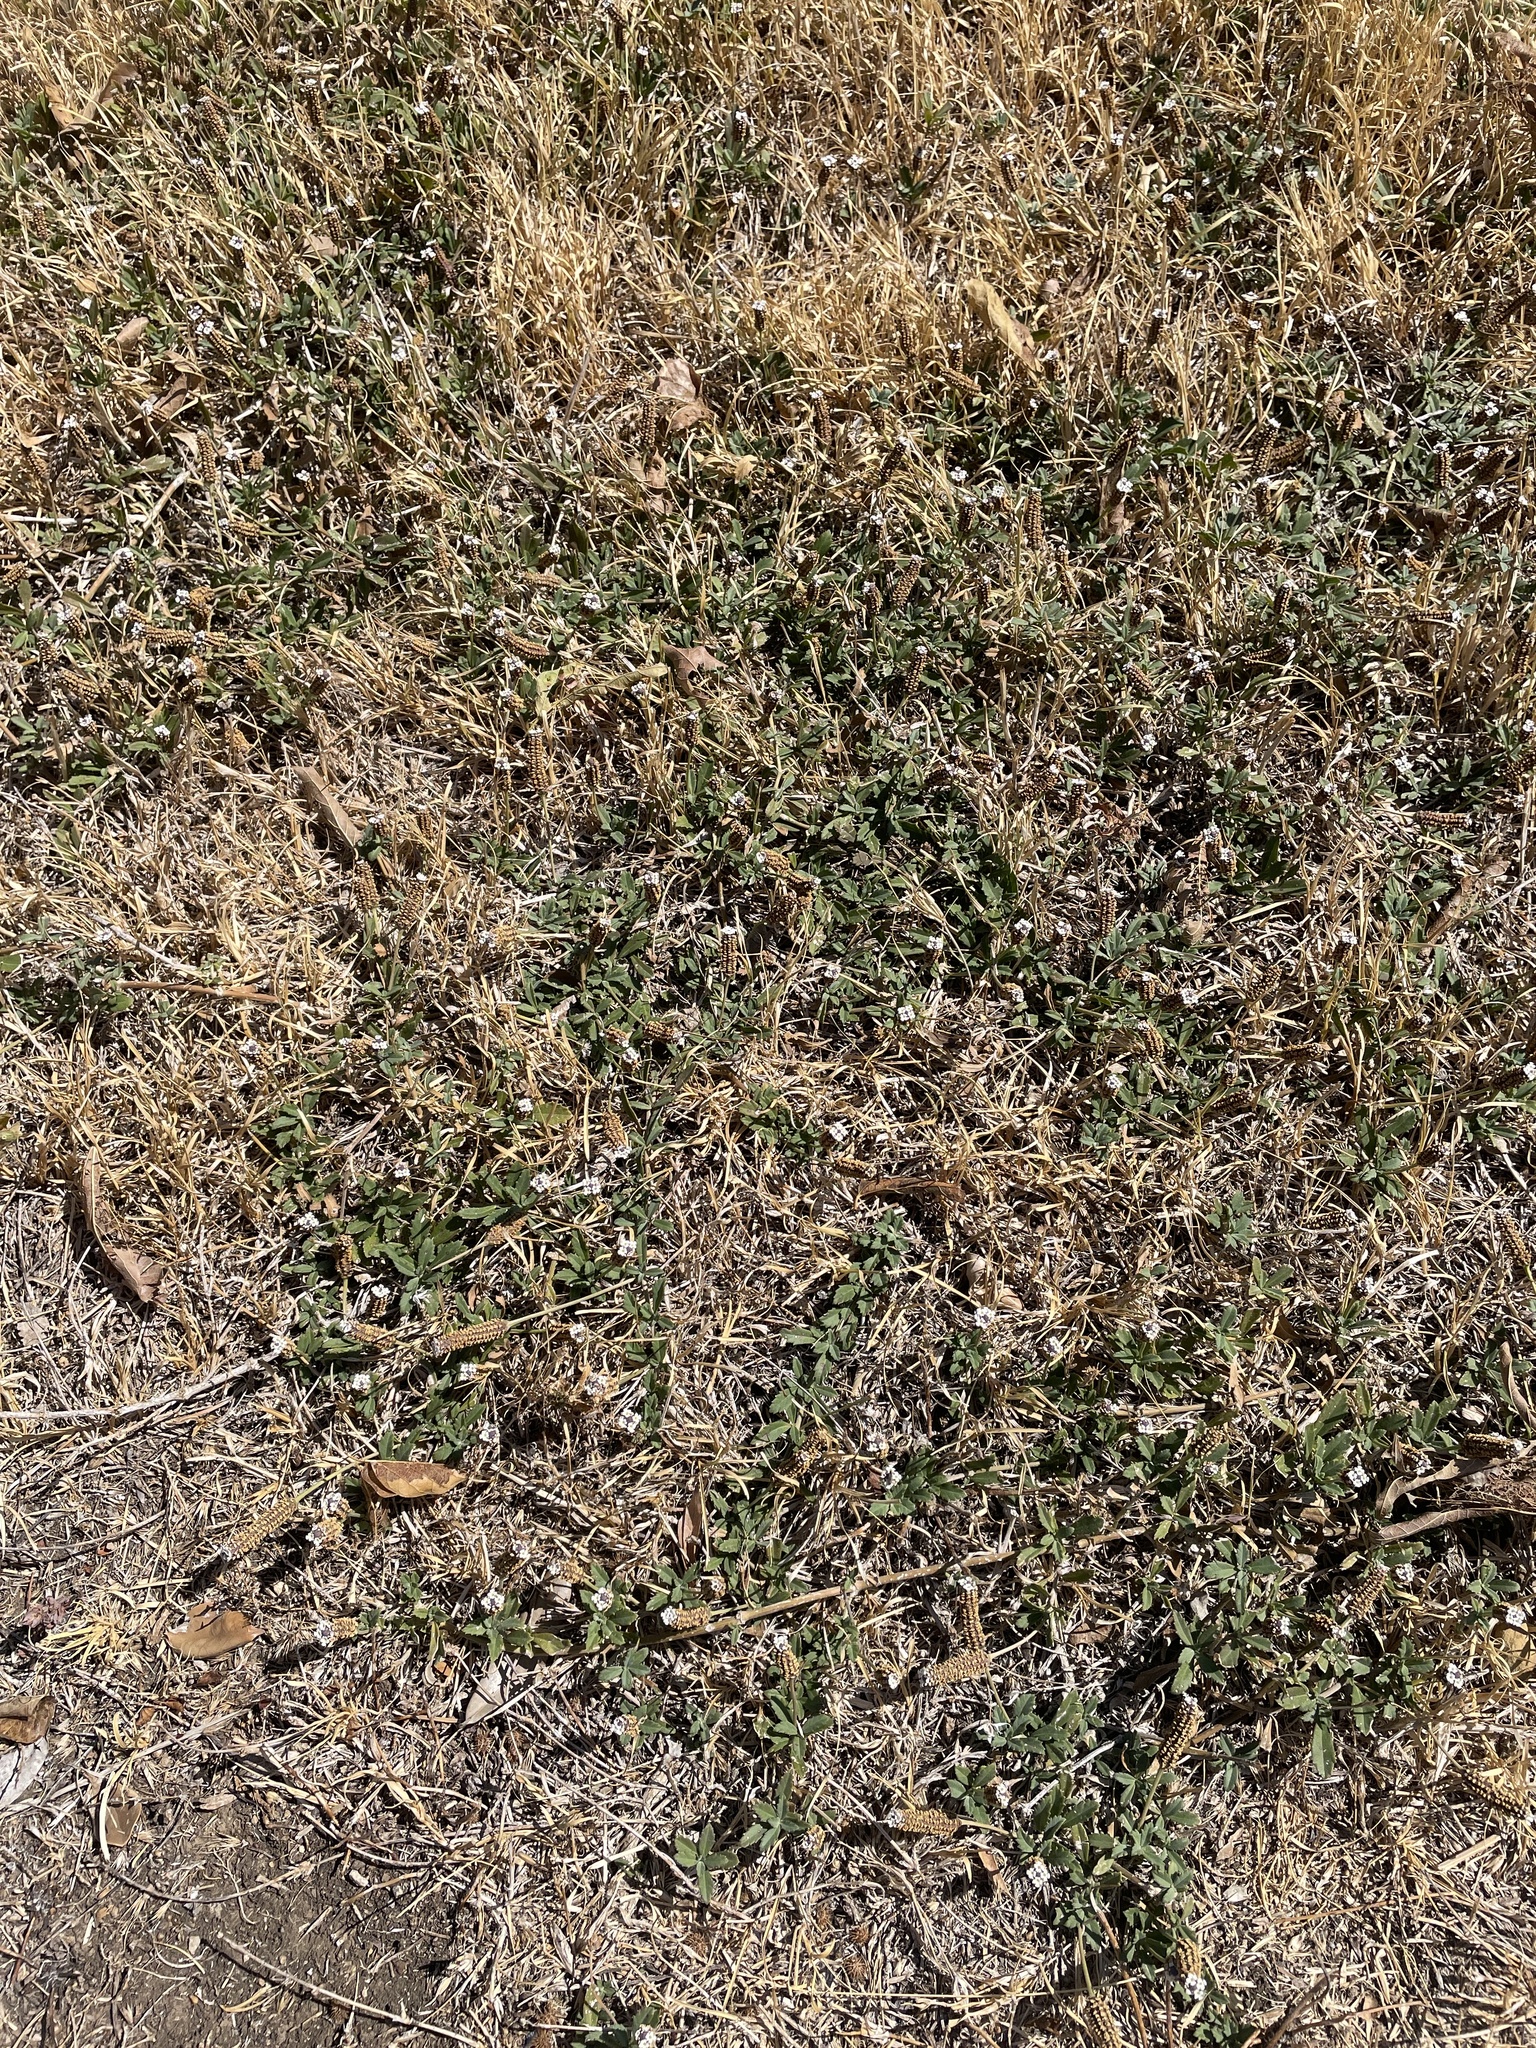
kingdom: Plantae
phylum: Tracheophyta
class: Magnoliopsida
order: Lamiales
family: Verbenaceae
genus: Phyla
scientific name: Phyla nodiflora
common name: Frogfruit
